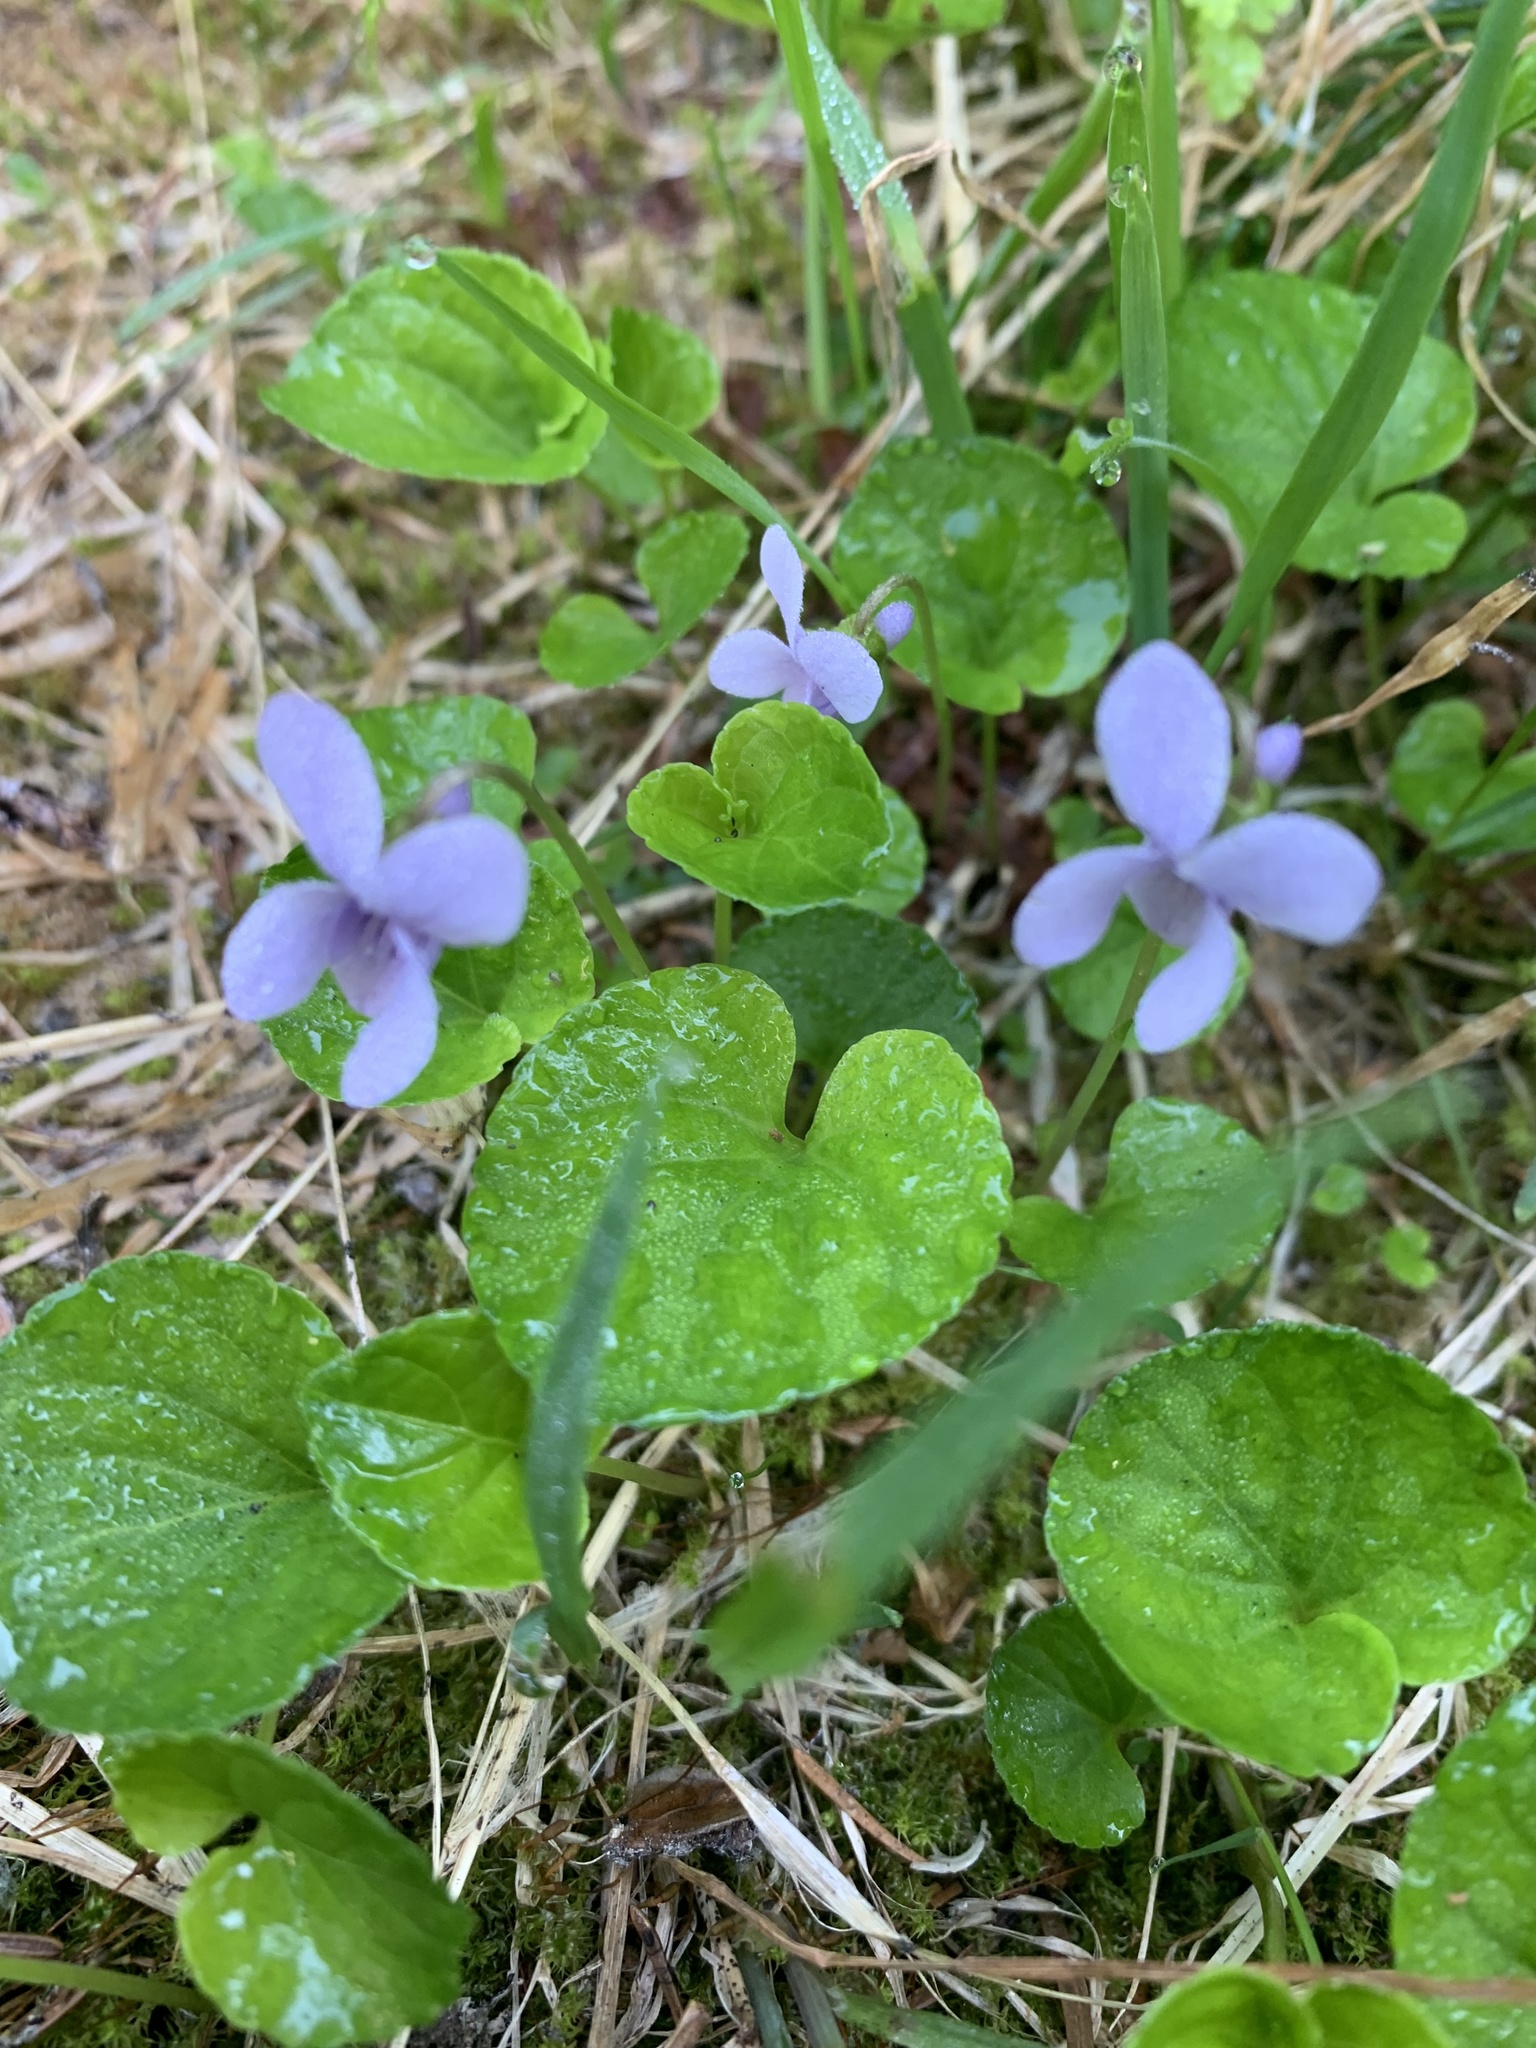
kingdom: Plantae
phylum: Tracheophyta
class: Magnoliopsida
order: Malpighiales
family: Violaceae
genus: Viola
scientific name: Viola palustris
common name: Marsh violet
